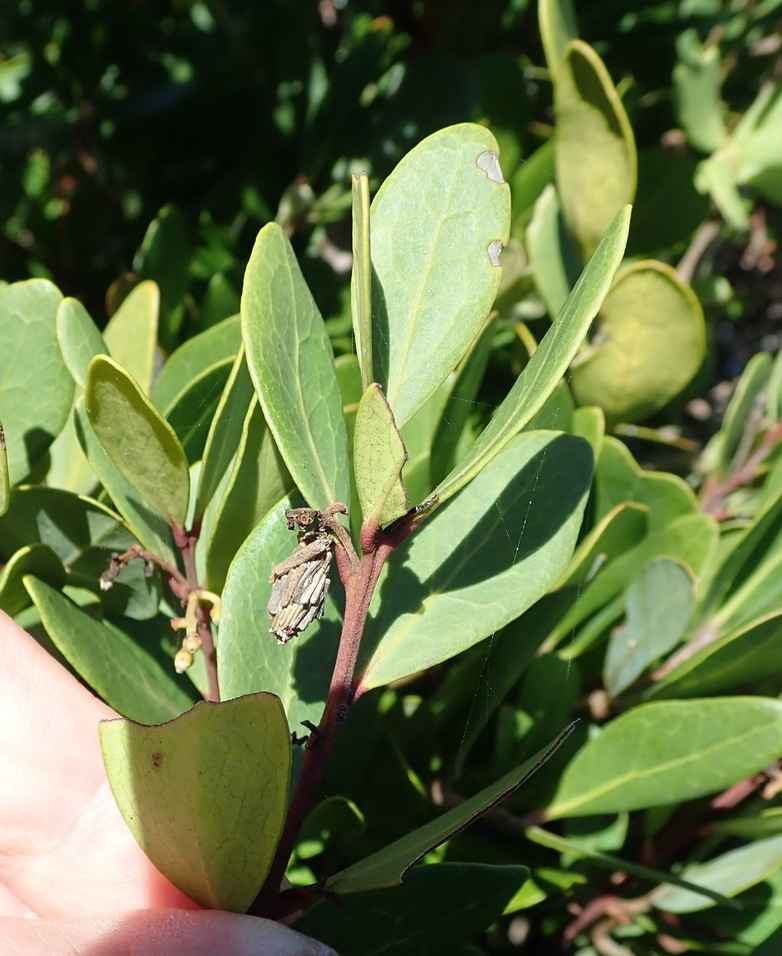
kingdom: Plantae
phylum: Tracheophyta
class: Magnoliopsida
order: Ericales
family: Ebenaceae
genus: Euclea
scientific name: Euclea racemosa
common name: Dune guarri
